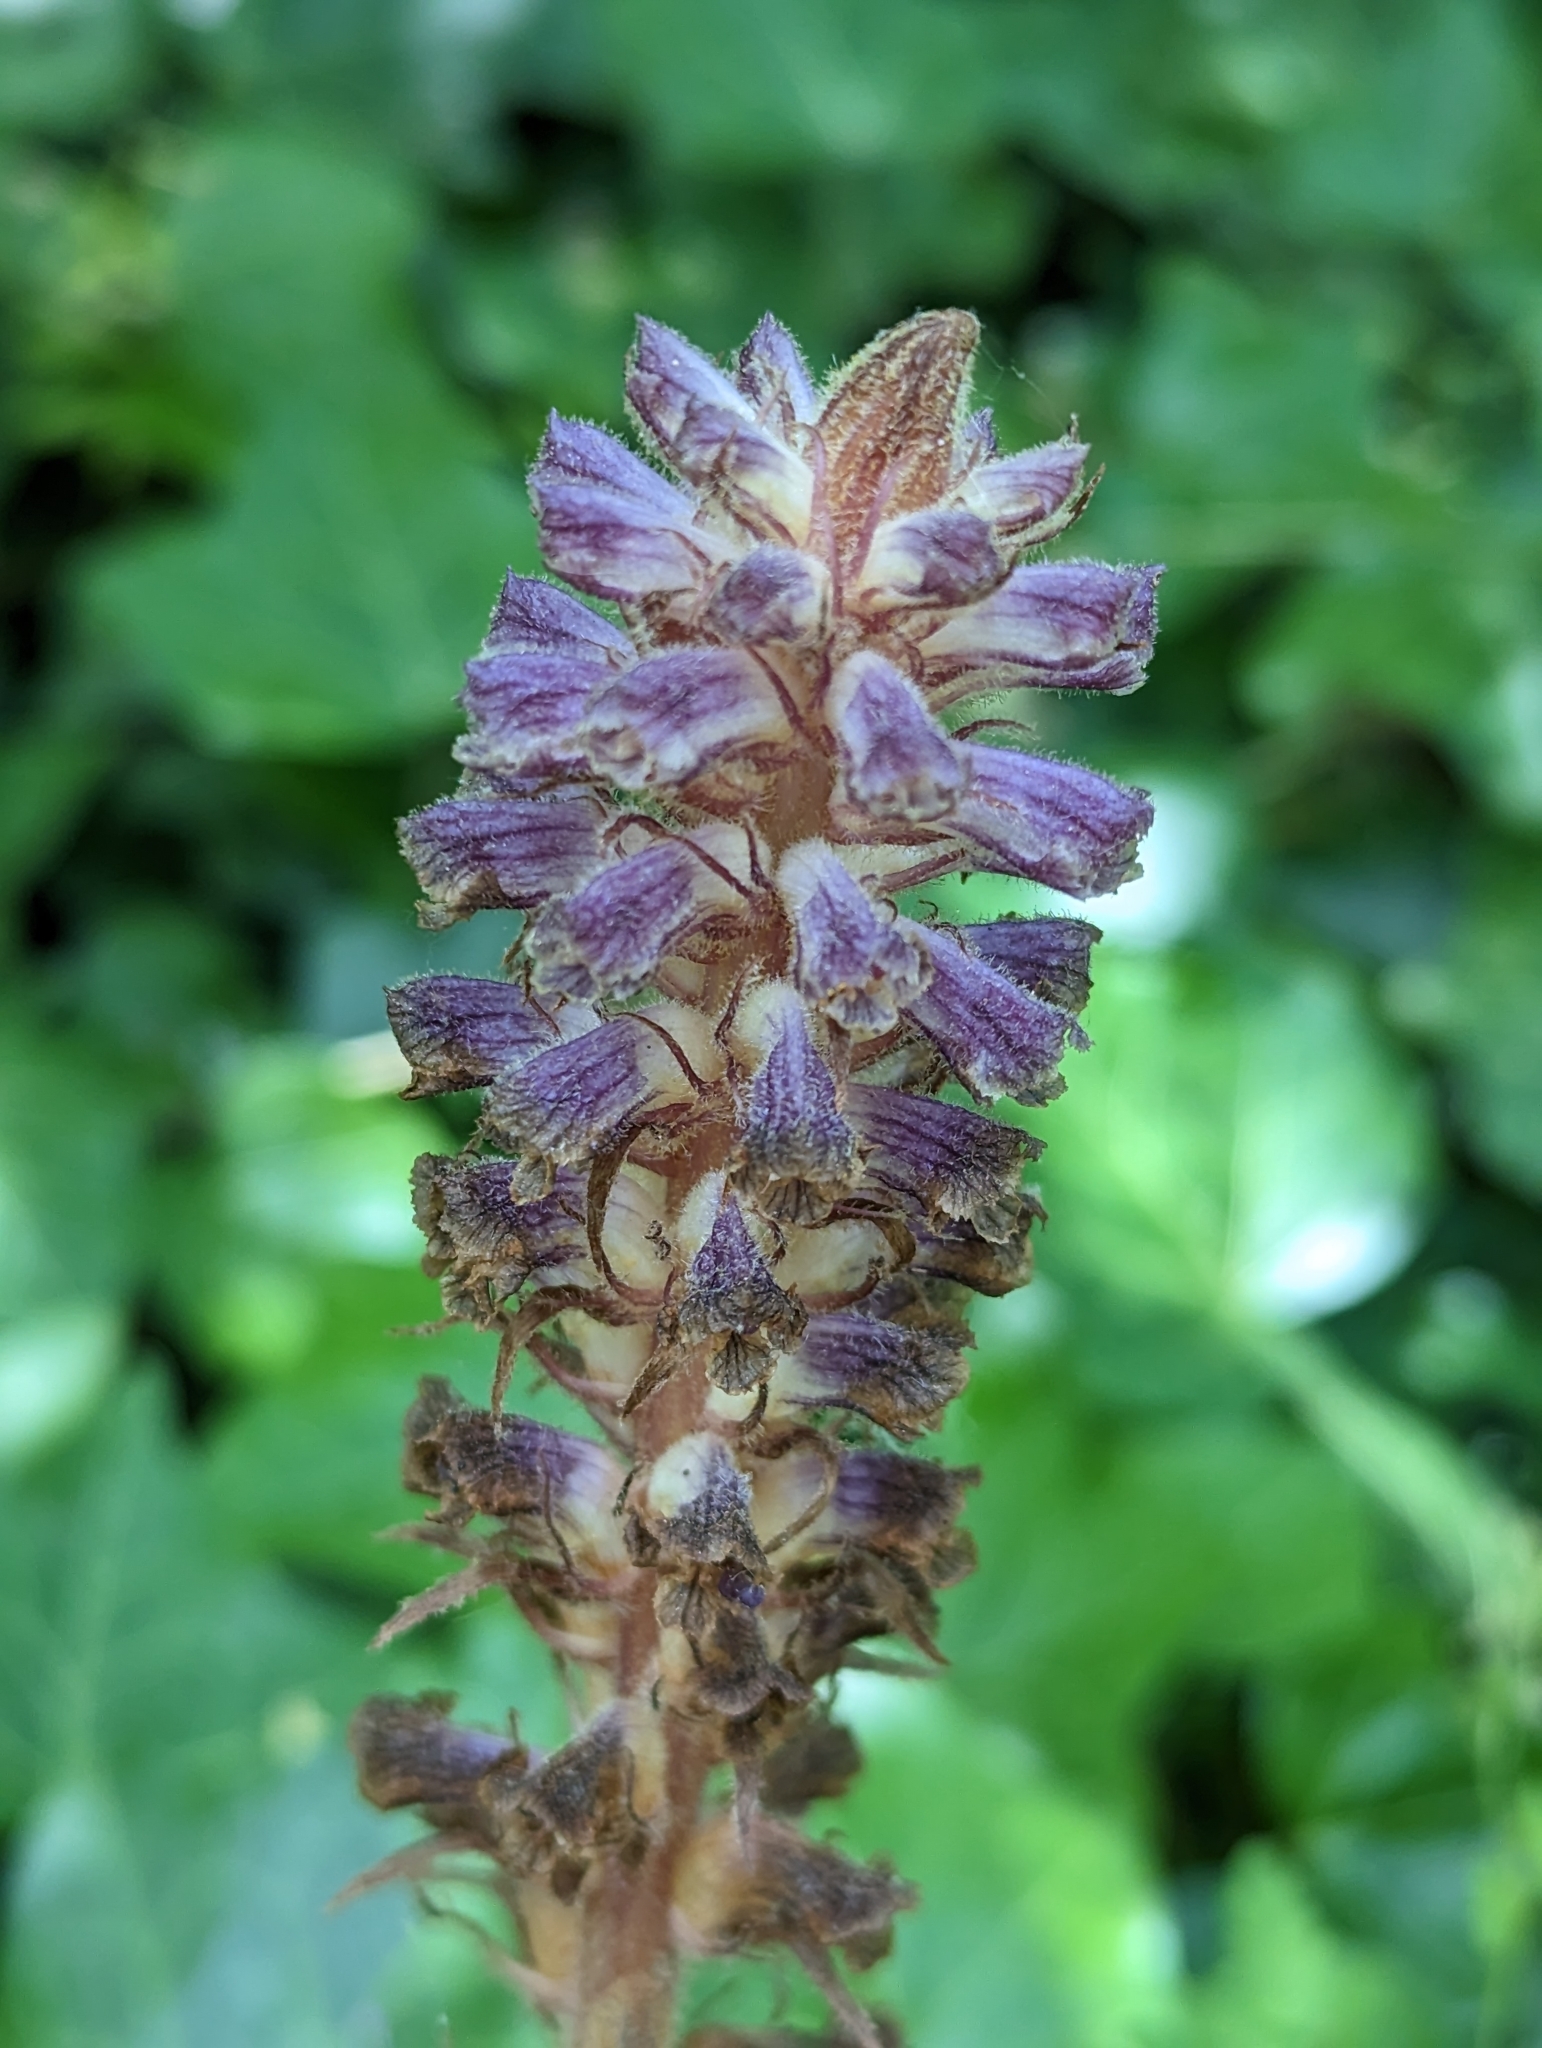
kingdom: Plantae
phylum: Tracheophyta
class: Magnoliopsida
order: Lamiales
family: Orobanchaceae
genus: Orobanche
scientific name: Orobanche minor
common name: Common broomrape
